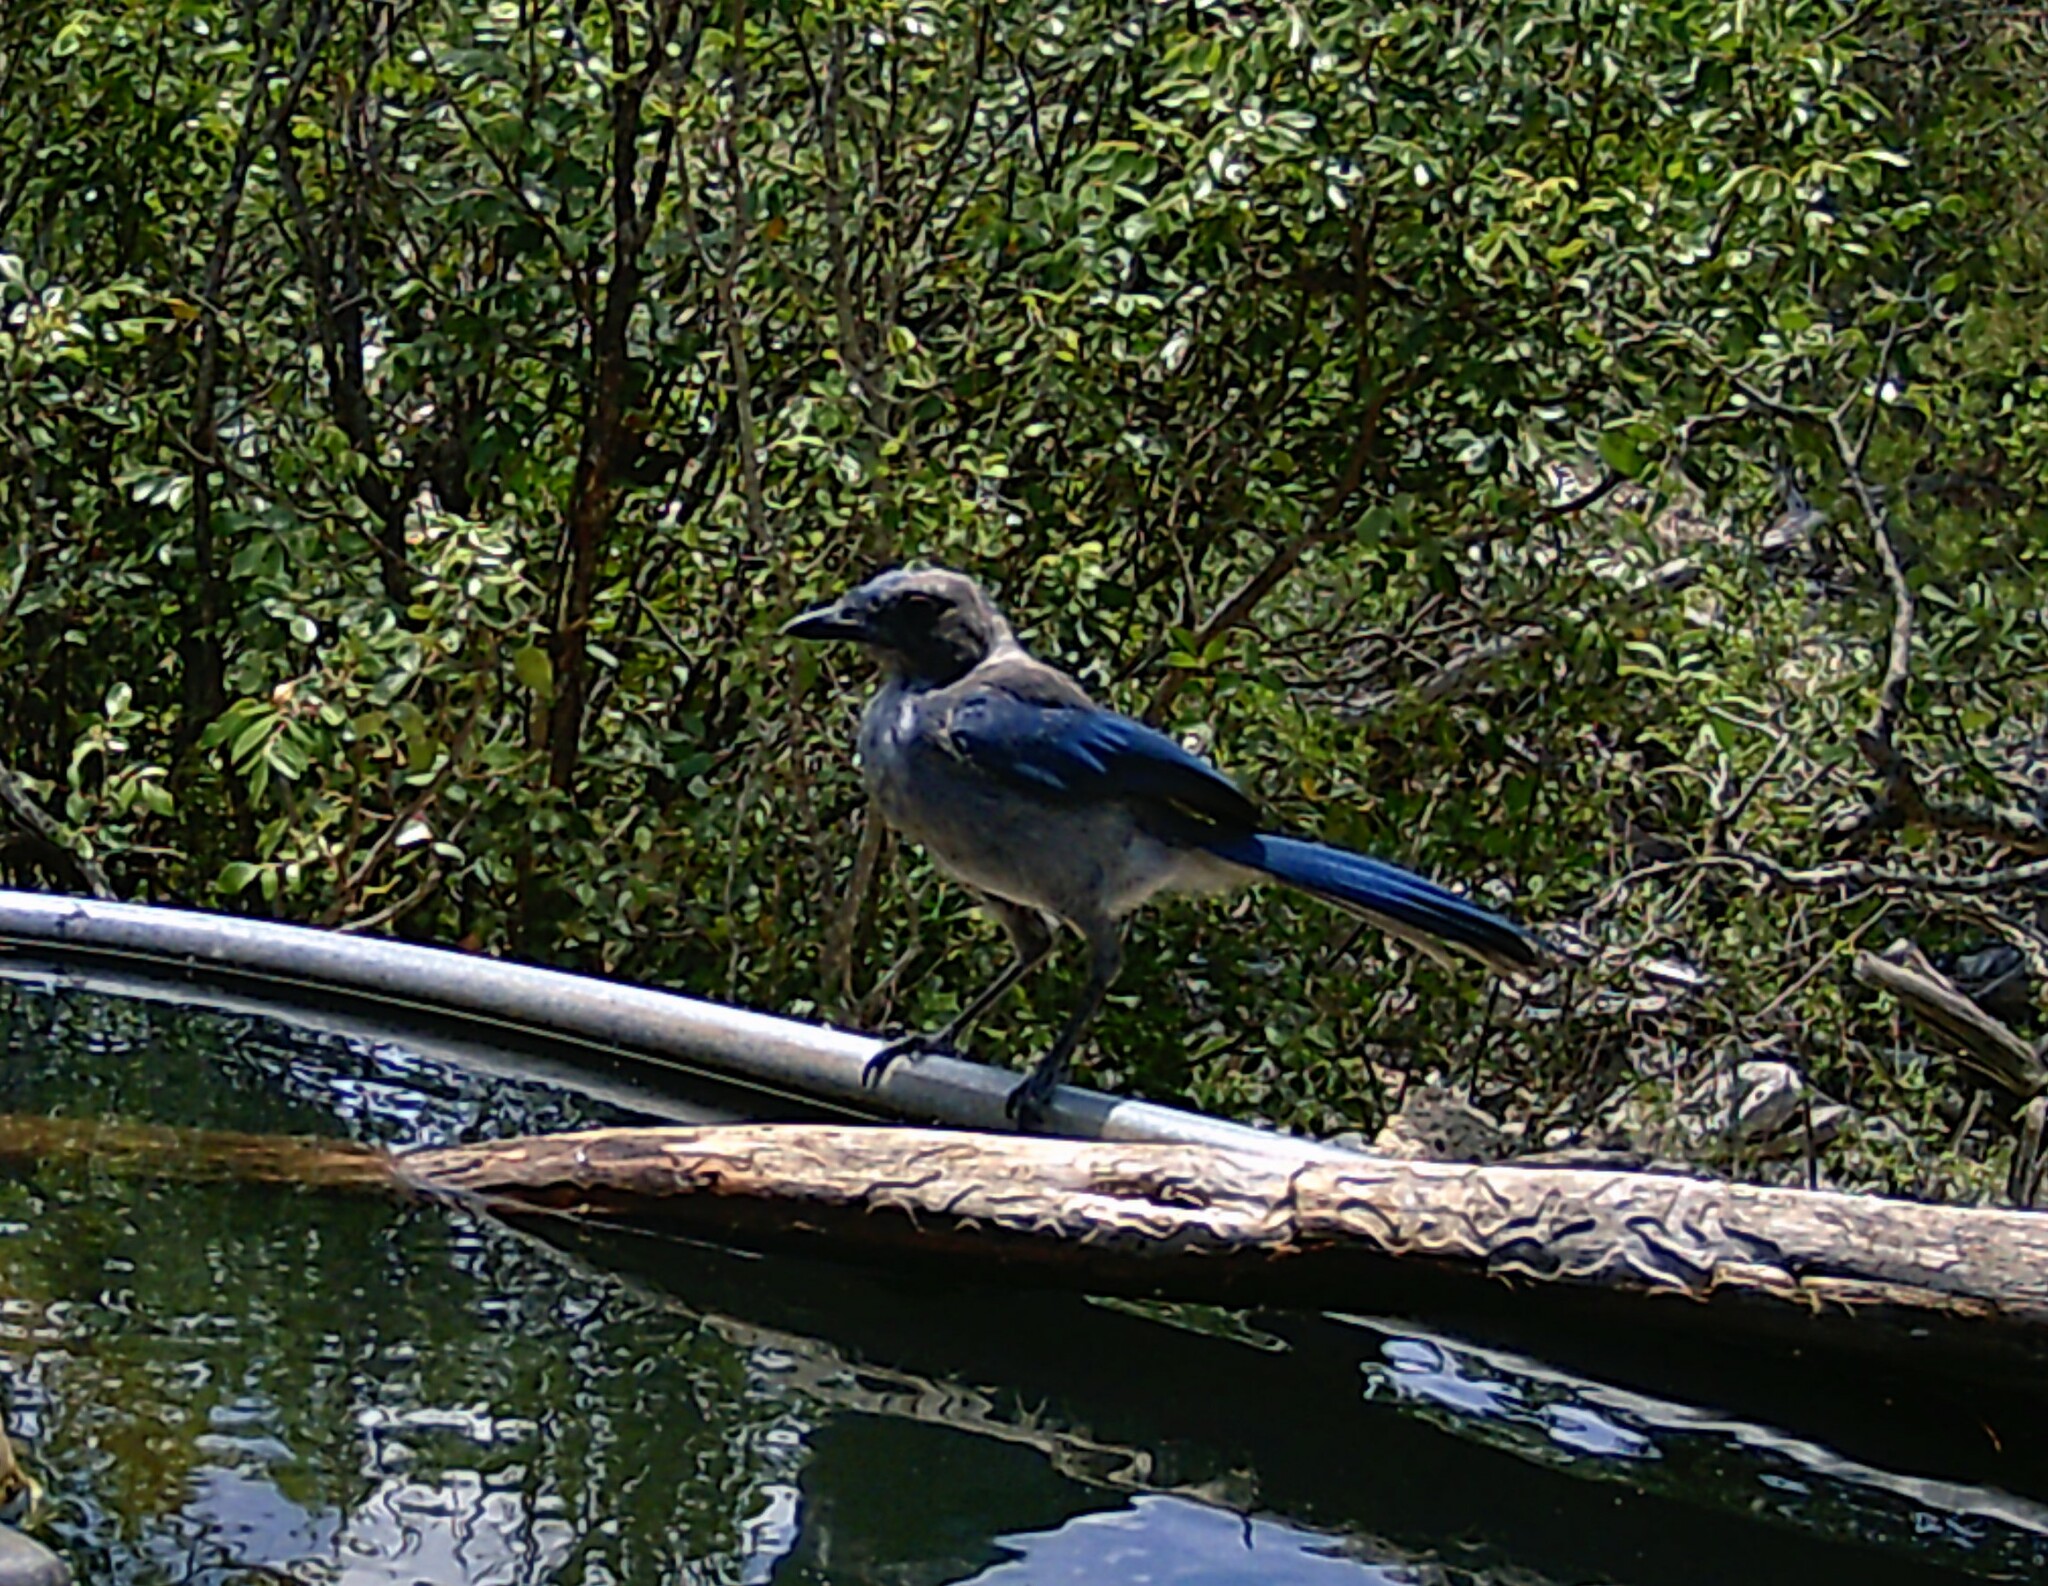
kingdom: Animalia
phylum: Chordata
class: Aves
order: Passeriformes
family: Corvidae
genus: Aphelocoma
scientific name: Aphelocoma woodhouseii
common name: Woodhouse's scrub-jay
